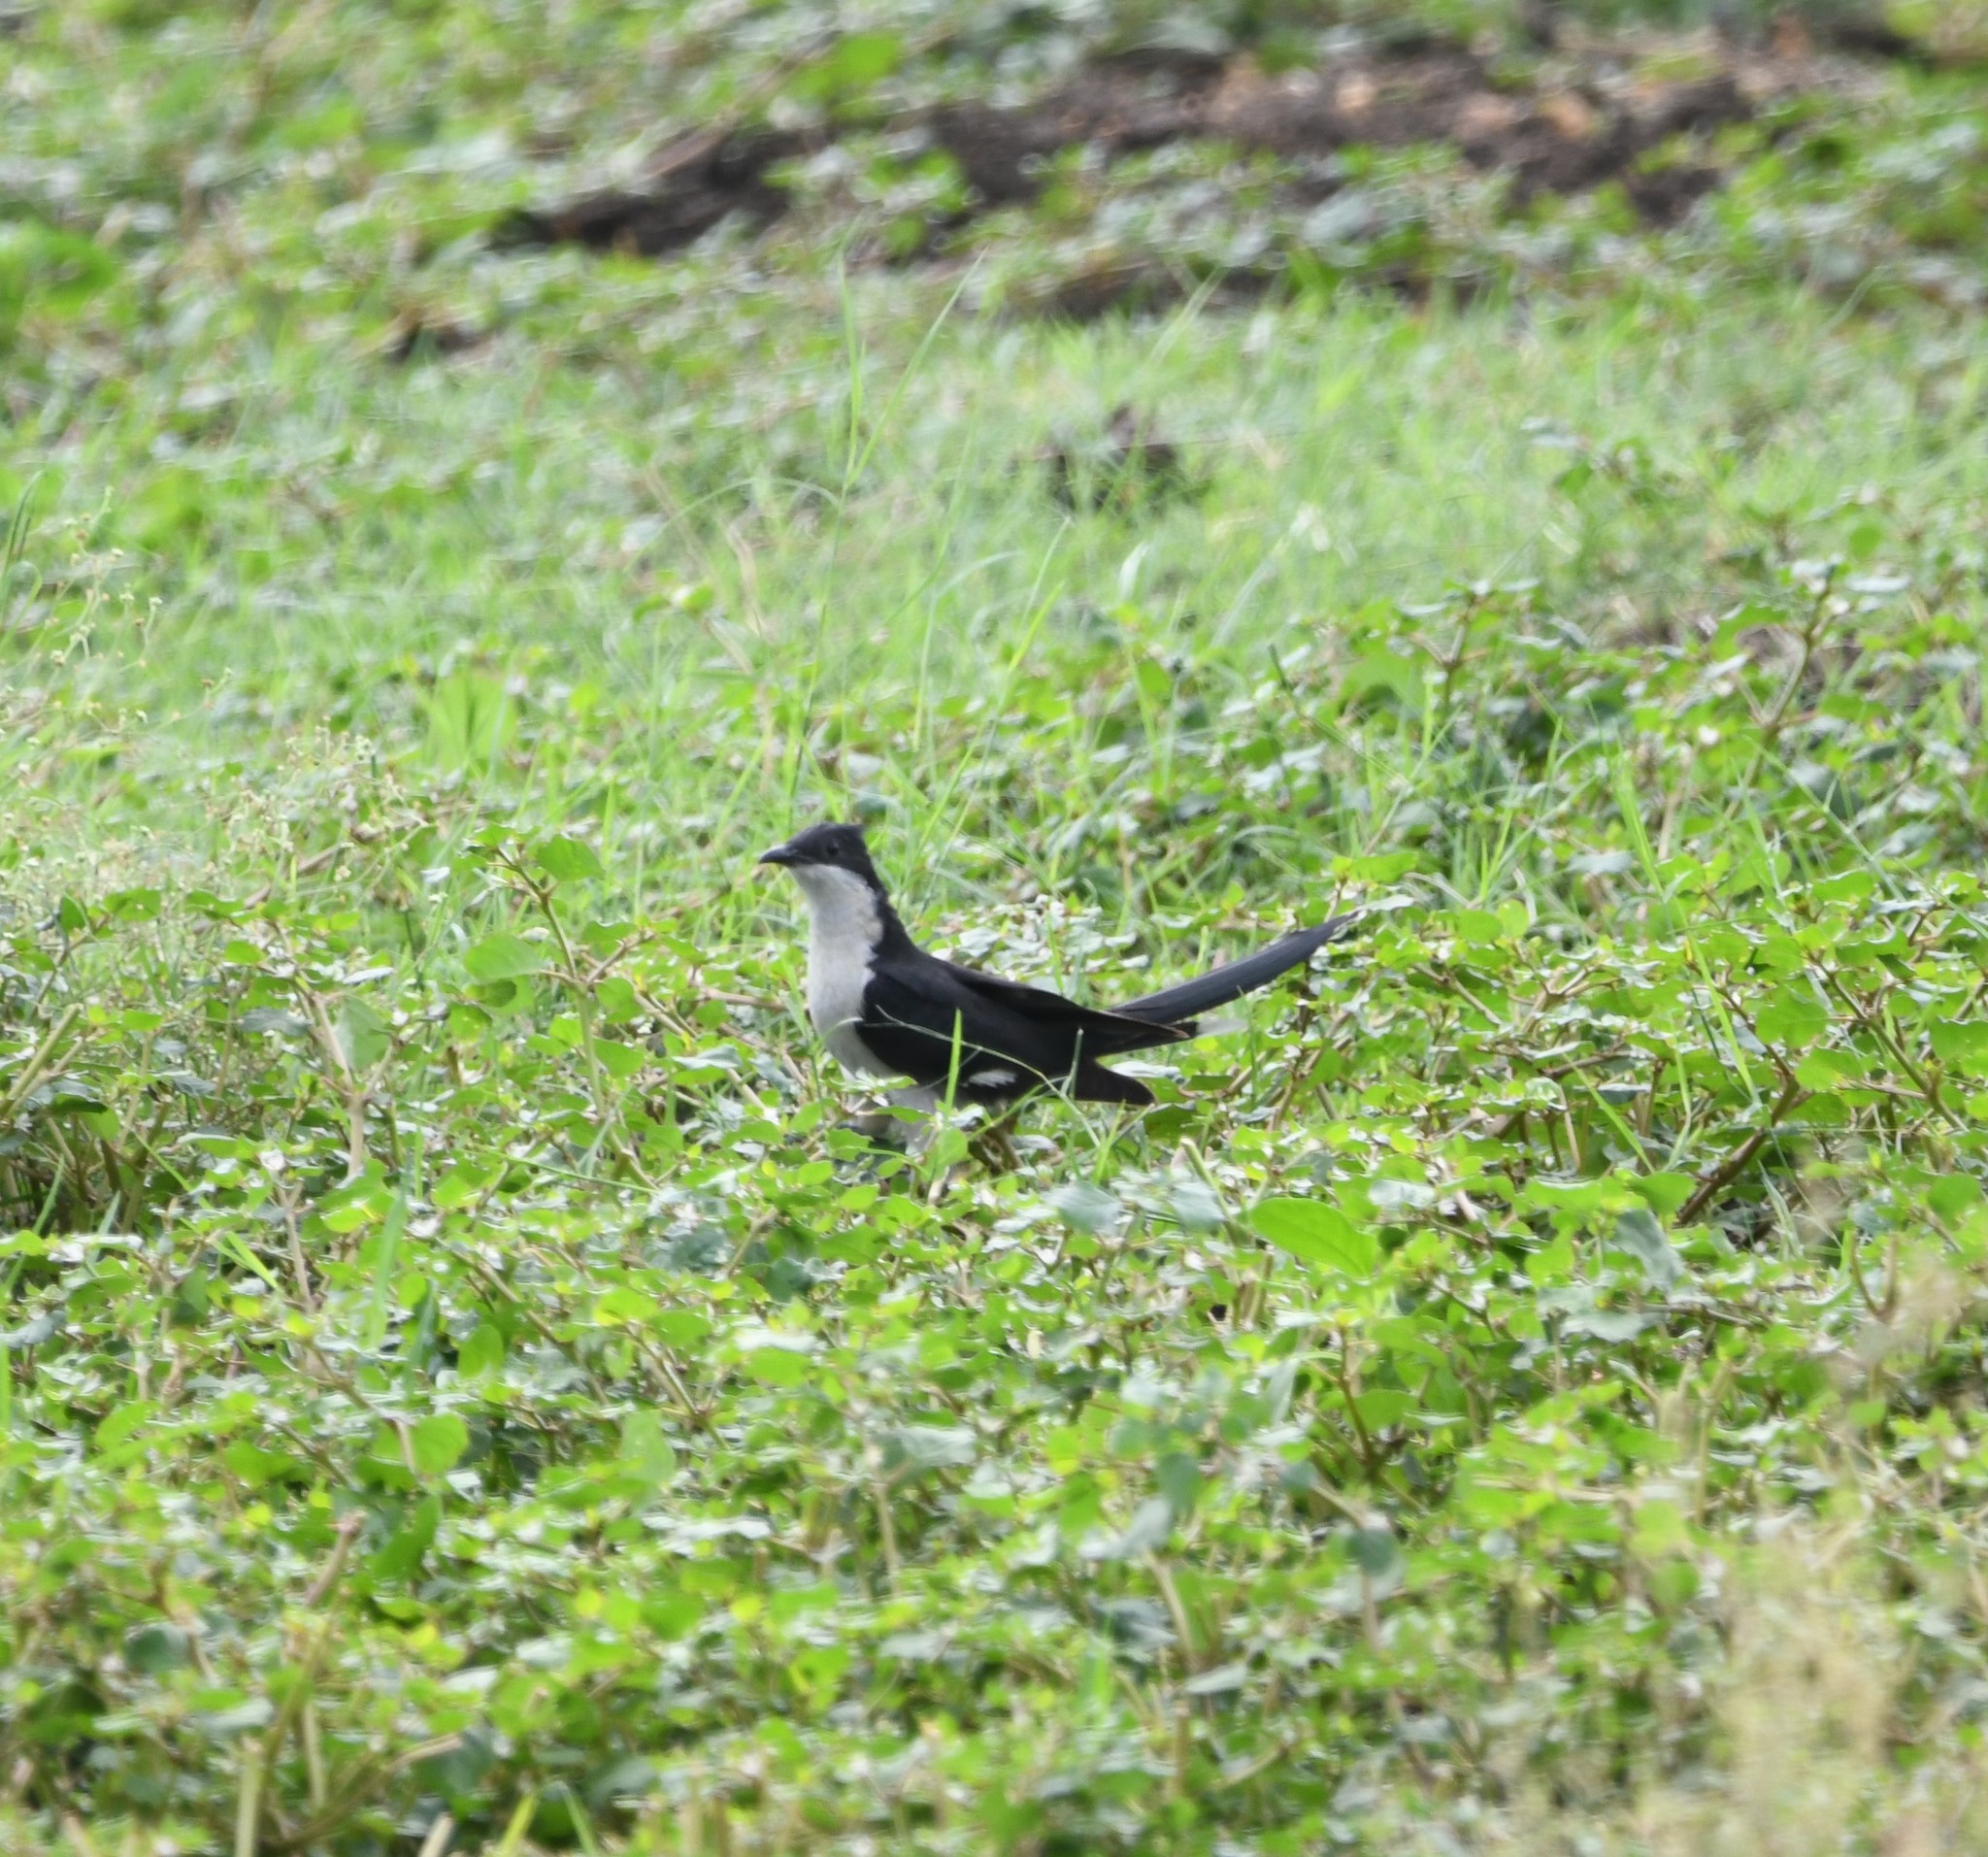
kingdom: Animalia
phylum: Chordata
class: Aves
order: Cuculiformes
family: Cuculidae
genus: Clamator
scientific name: Clamator jacobinus
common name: Jacobin cuckoo
